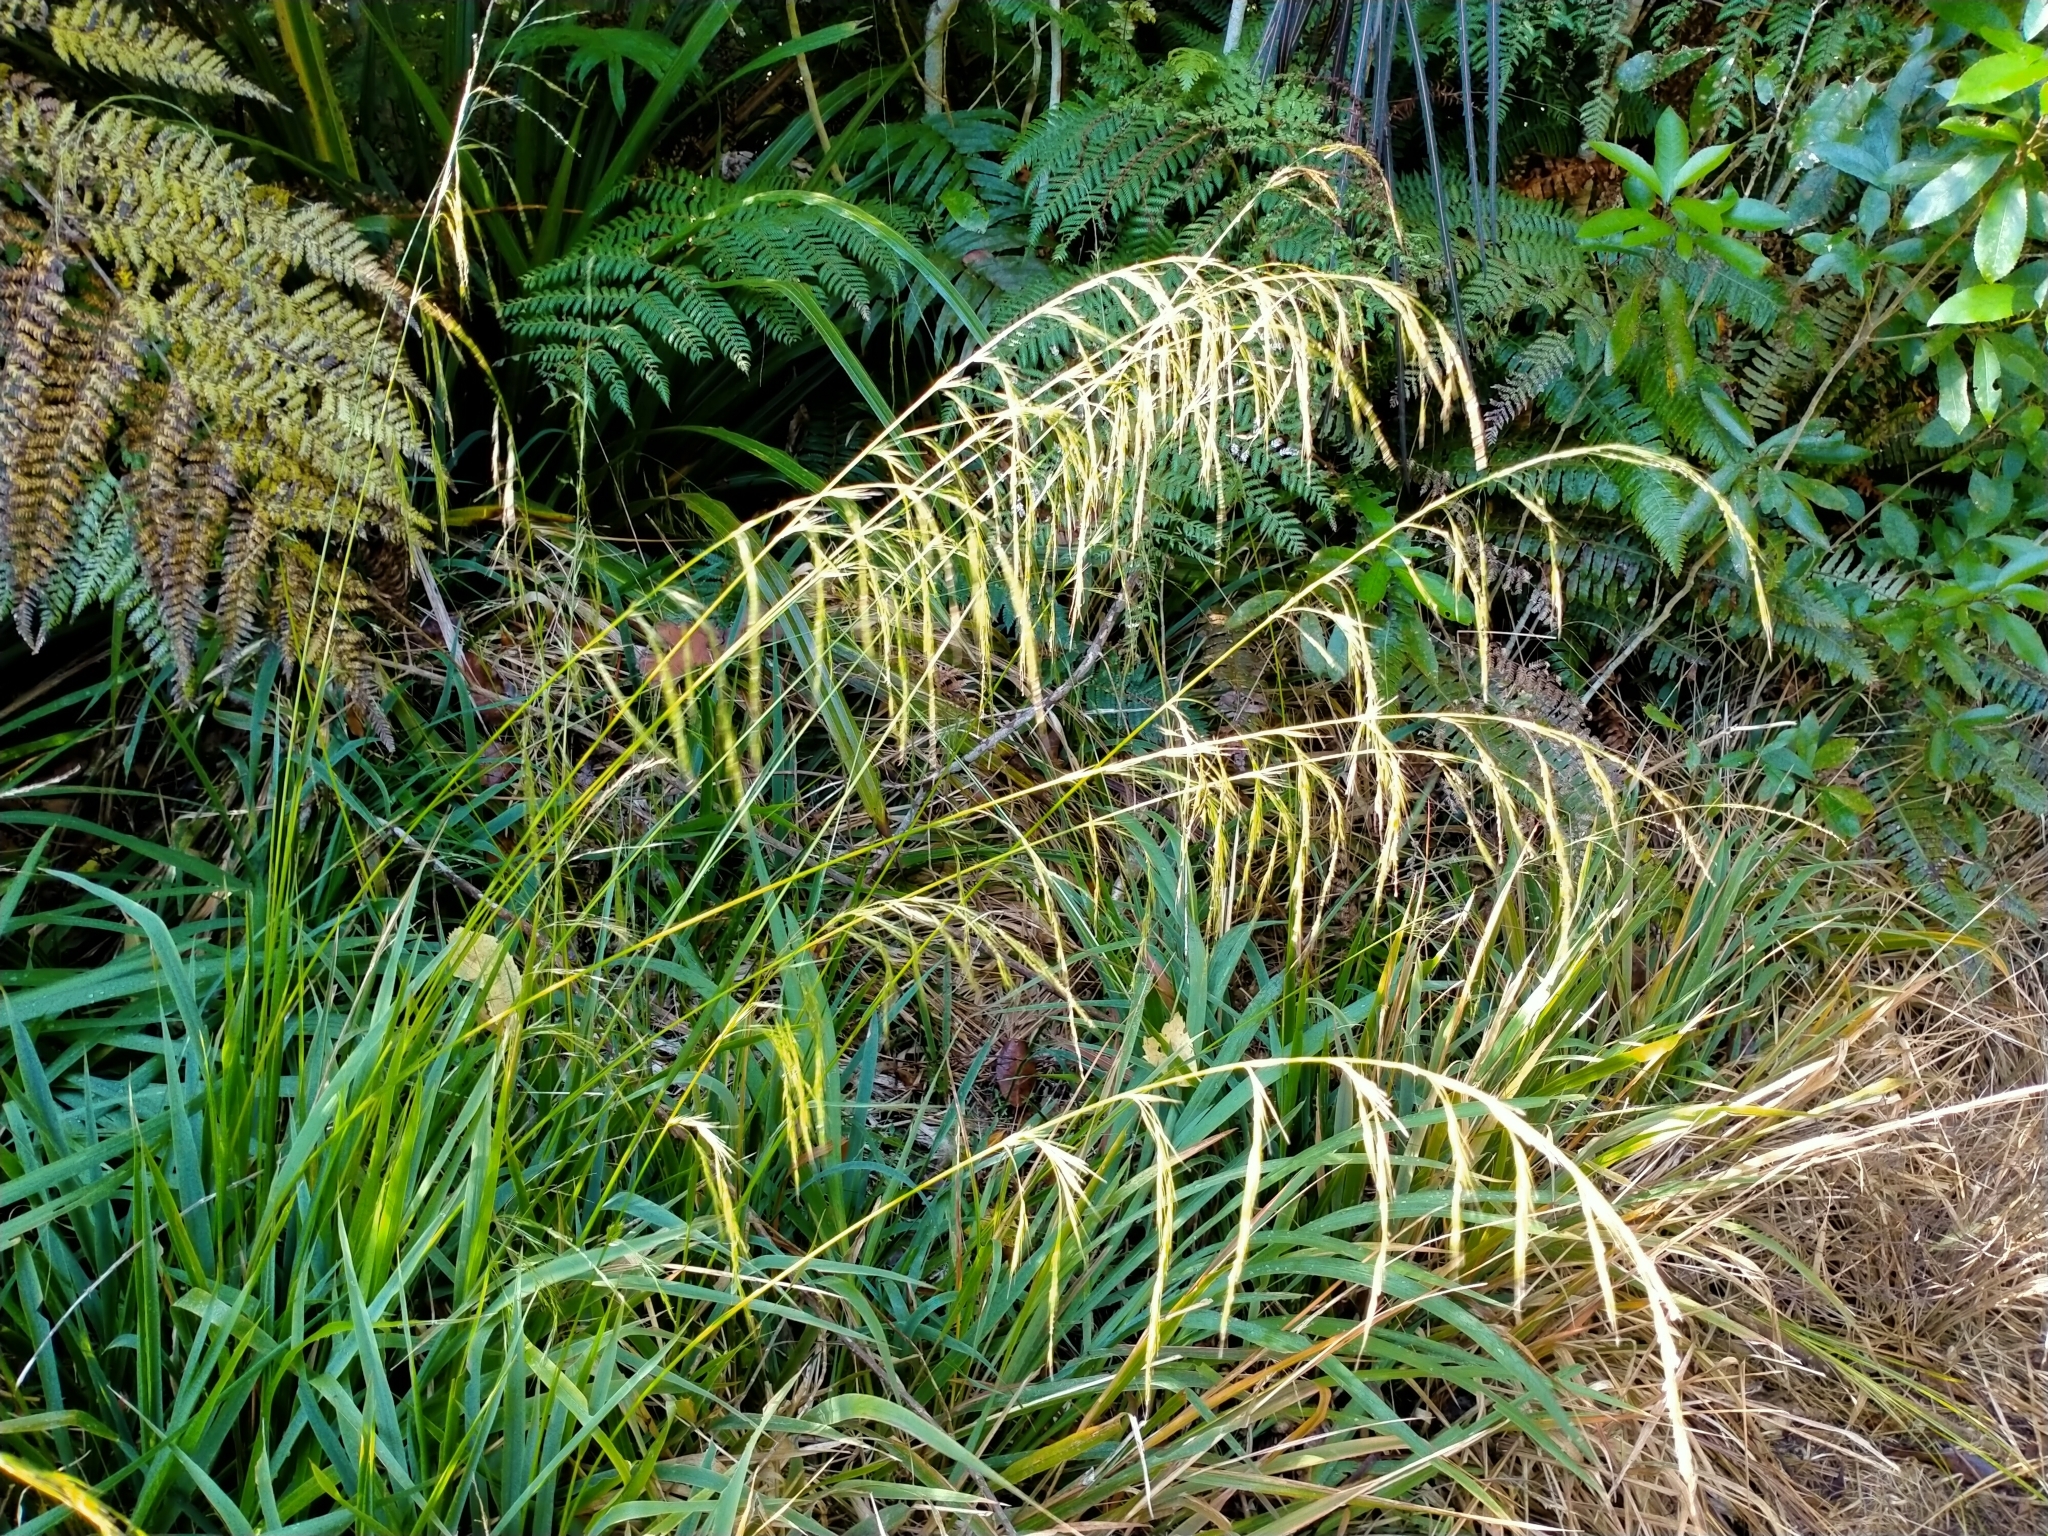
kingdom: Plantae
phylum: Tracheophyta
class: Liliopsida
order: Poales
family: Poaceae
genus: Ehrharta
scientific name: Ehrharta diplax
